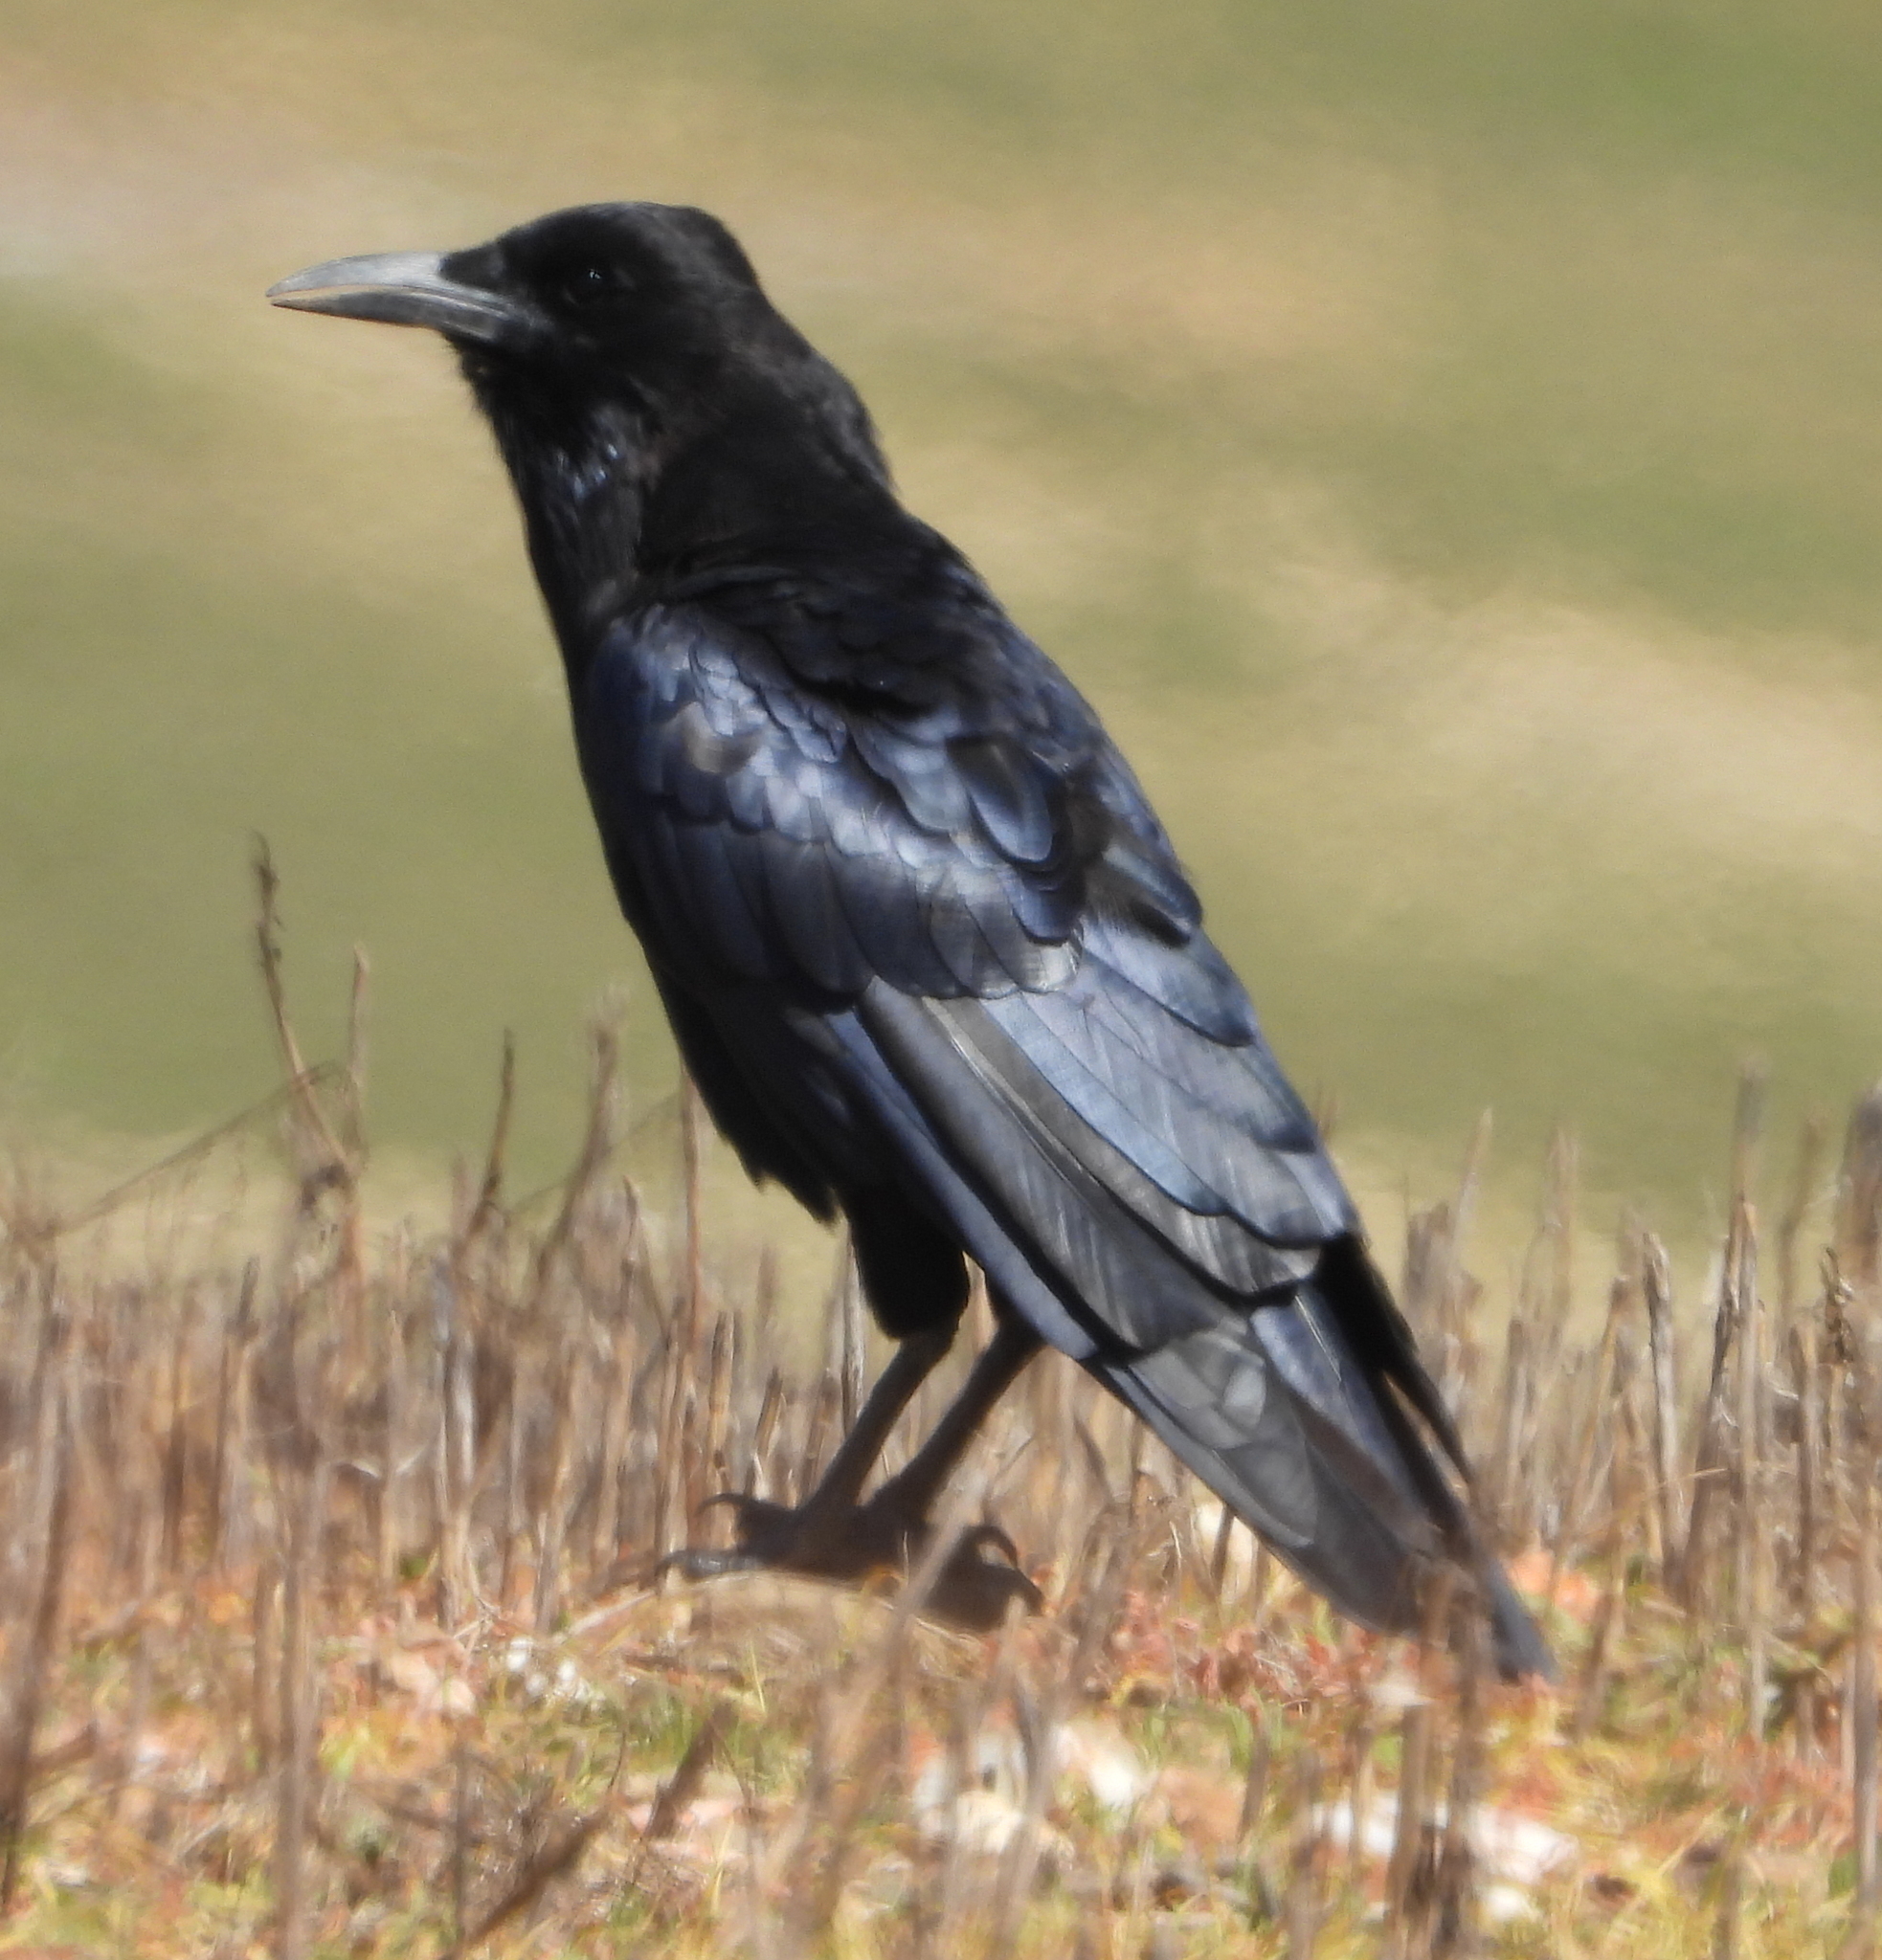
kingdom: Animalia
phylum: Chordata
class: Aves
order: Passeriformes
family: Corvidae
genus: Corvus
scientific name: Corvus capensis
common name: Cape crow
